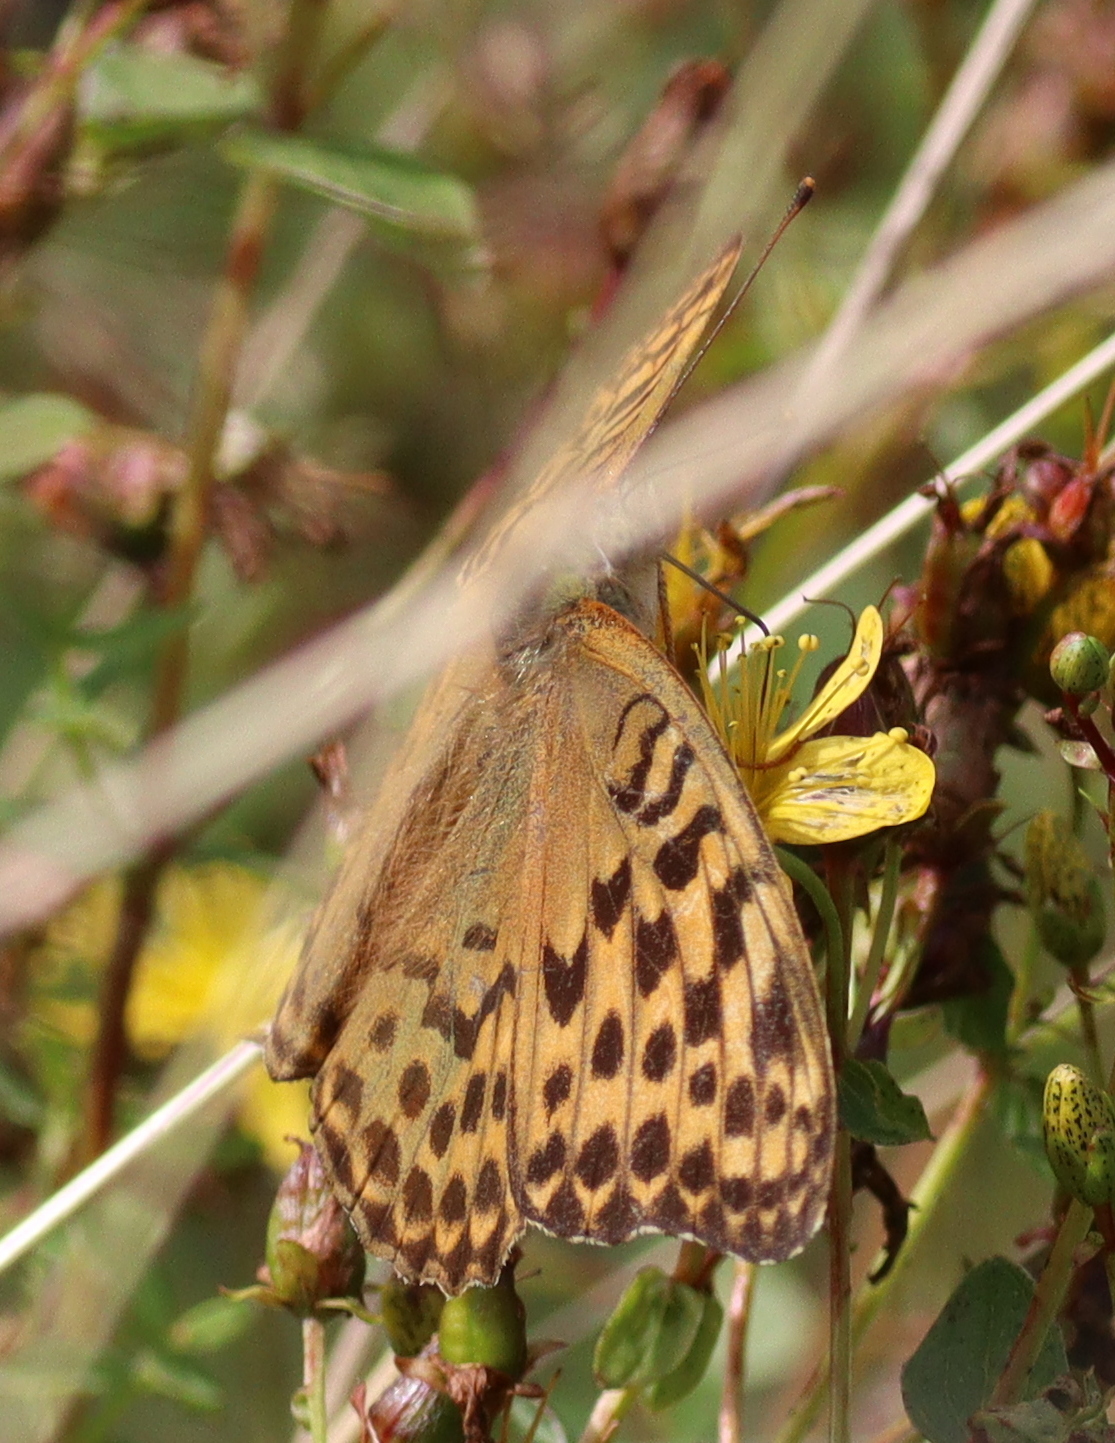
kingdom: Animalia
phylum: Arthropoda
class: Insecta
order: Lepidoptera
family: Nymphalidae
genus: Argynnis
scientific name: Argynnis paphia
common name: Silver-washed fritillary
